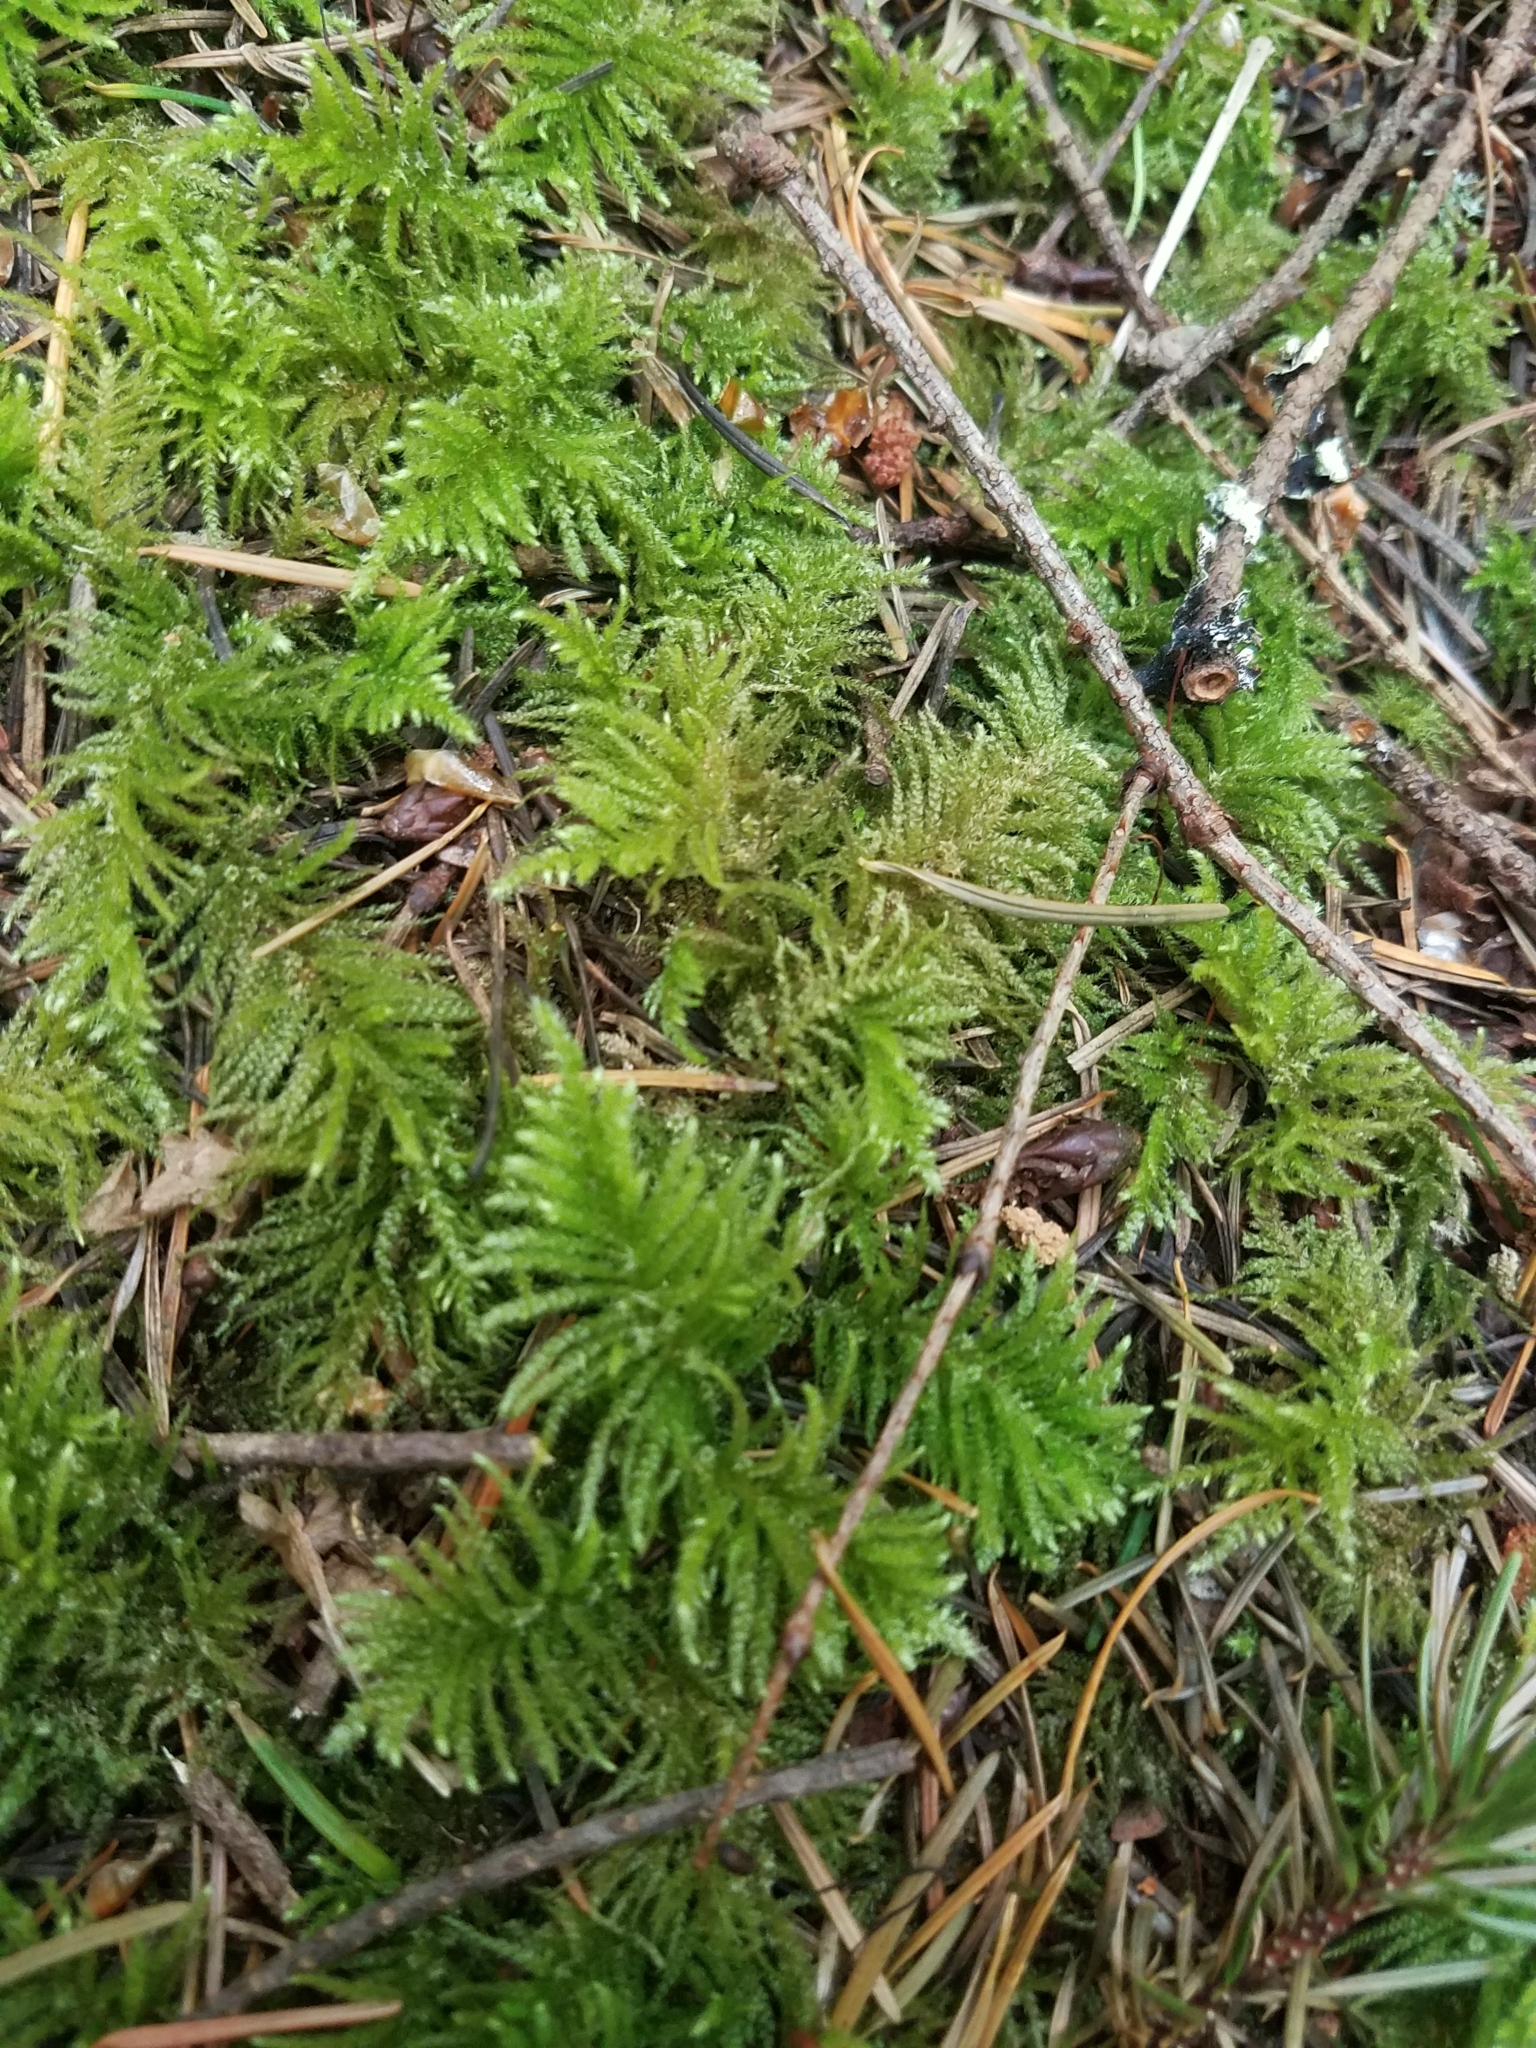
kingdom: Plantae
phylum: Bryophyta
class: Bryopsida
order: Hypnales
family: Brachytheciaceae
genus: Kindbergia
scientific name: Kindbergia oregana
